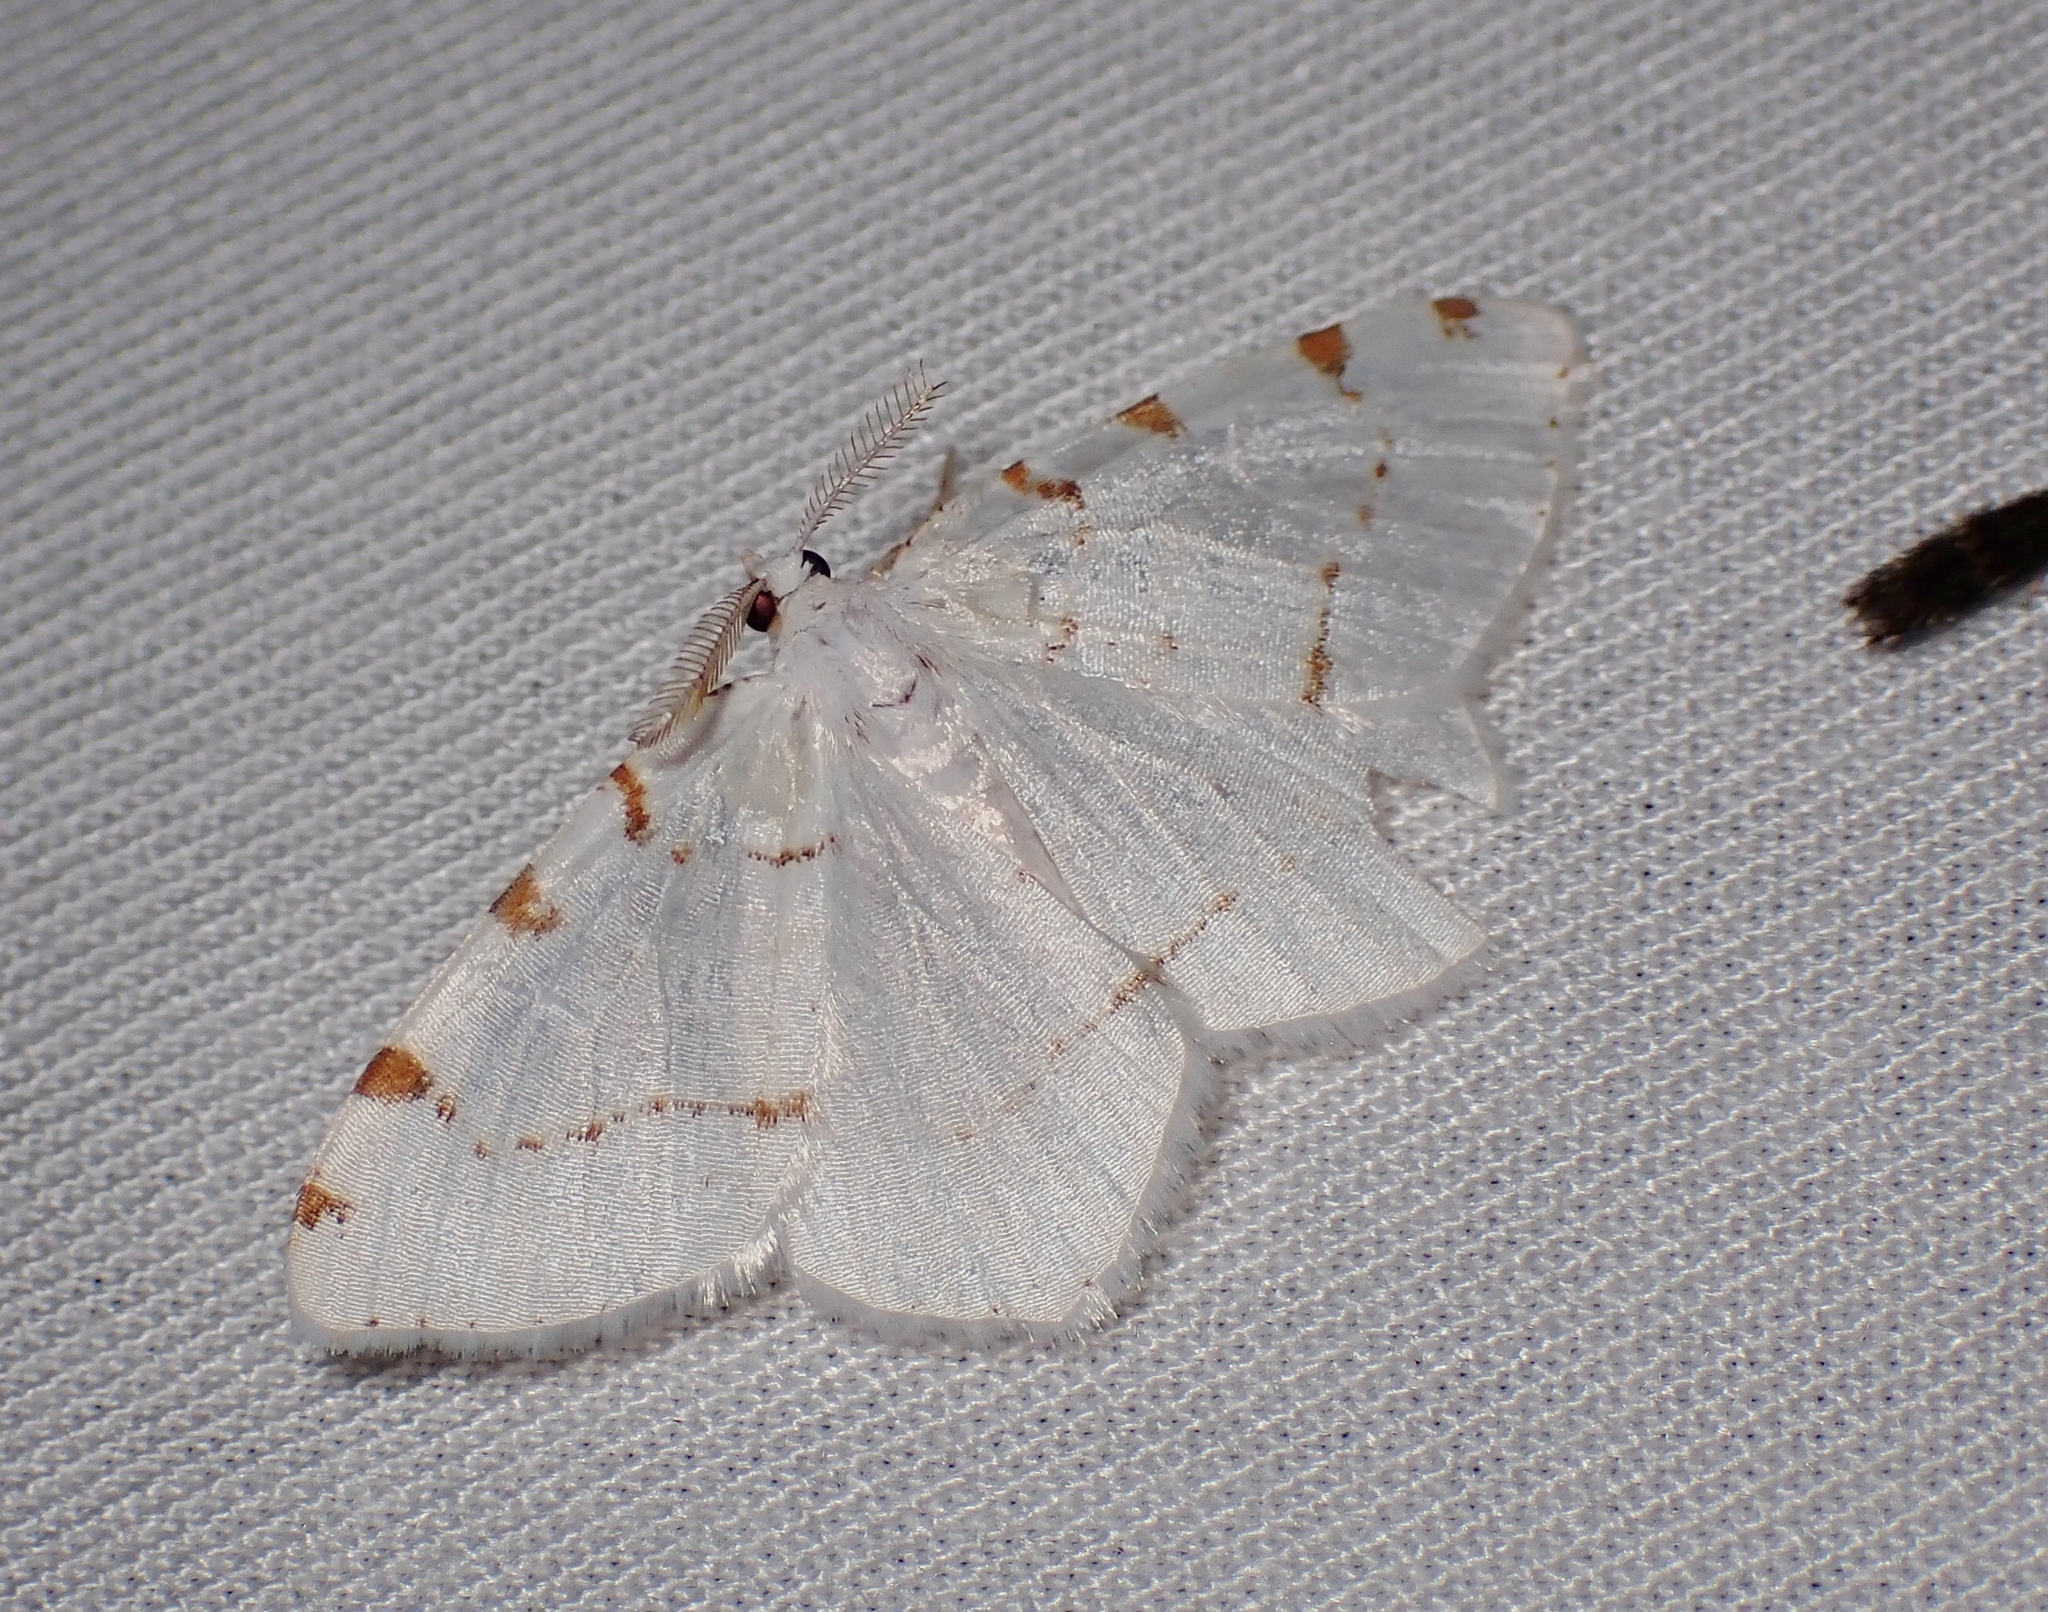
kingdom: Animalia
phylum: Arthropoda
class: Insecta
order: Lepidoptera
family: Geometridae
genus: Macaria
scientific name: Macaria pustularia
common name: Lesser maple spanworm moth
